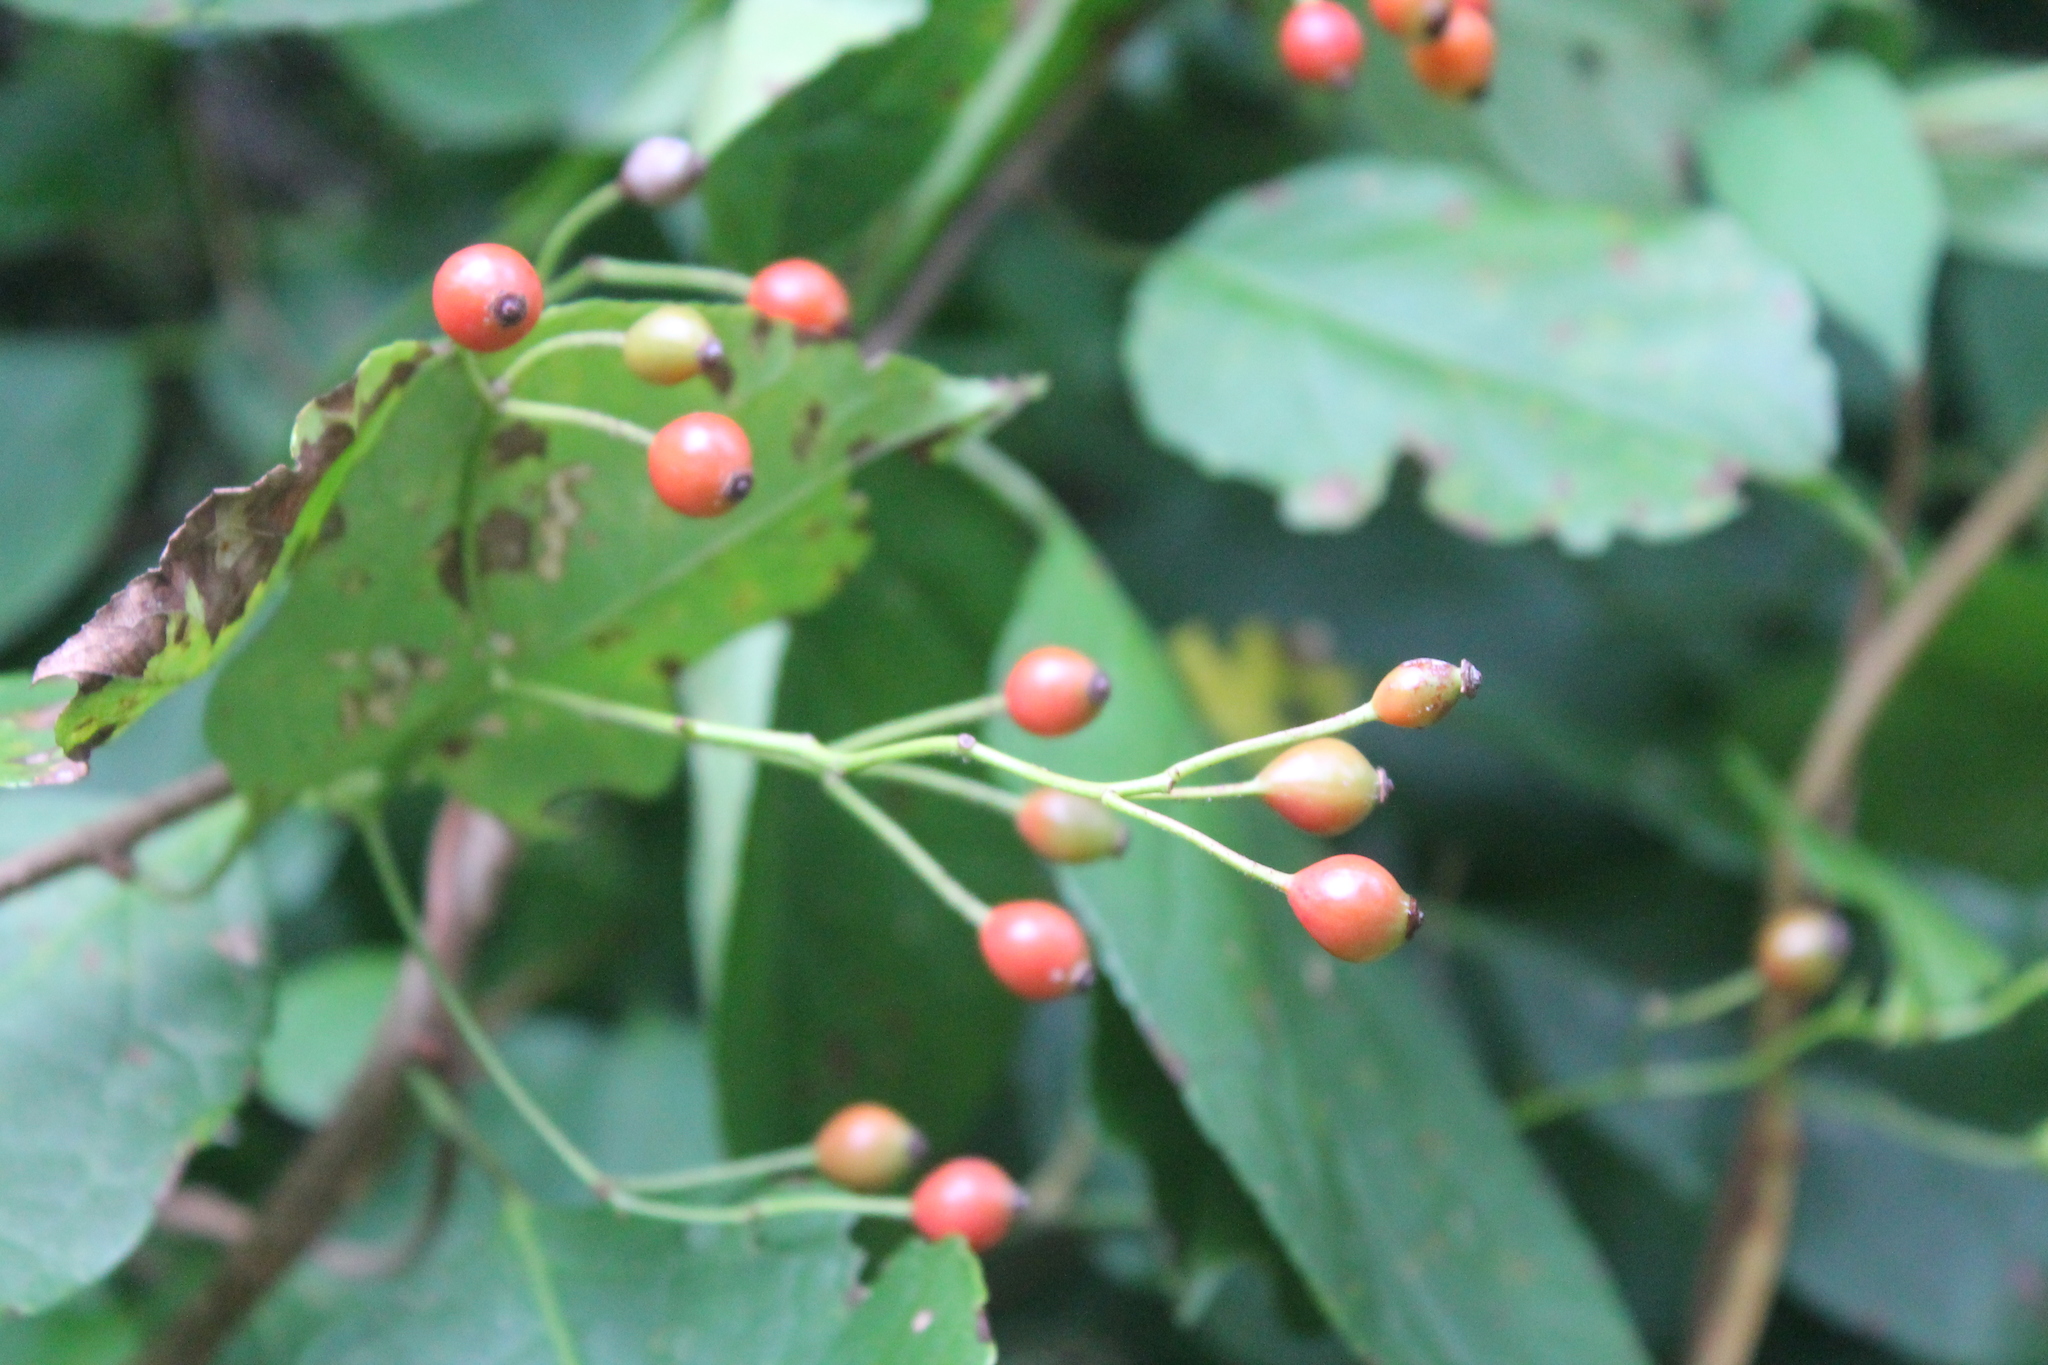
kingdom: Plantae
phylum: Tracheophyta
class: Magnoliopsida
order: Rosales
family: Rosaceae
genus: Rosa
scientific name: Rosa multiflora
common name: Multiflora rose
